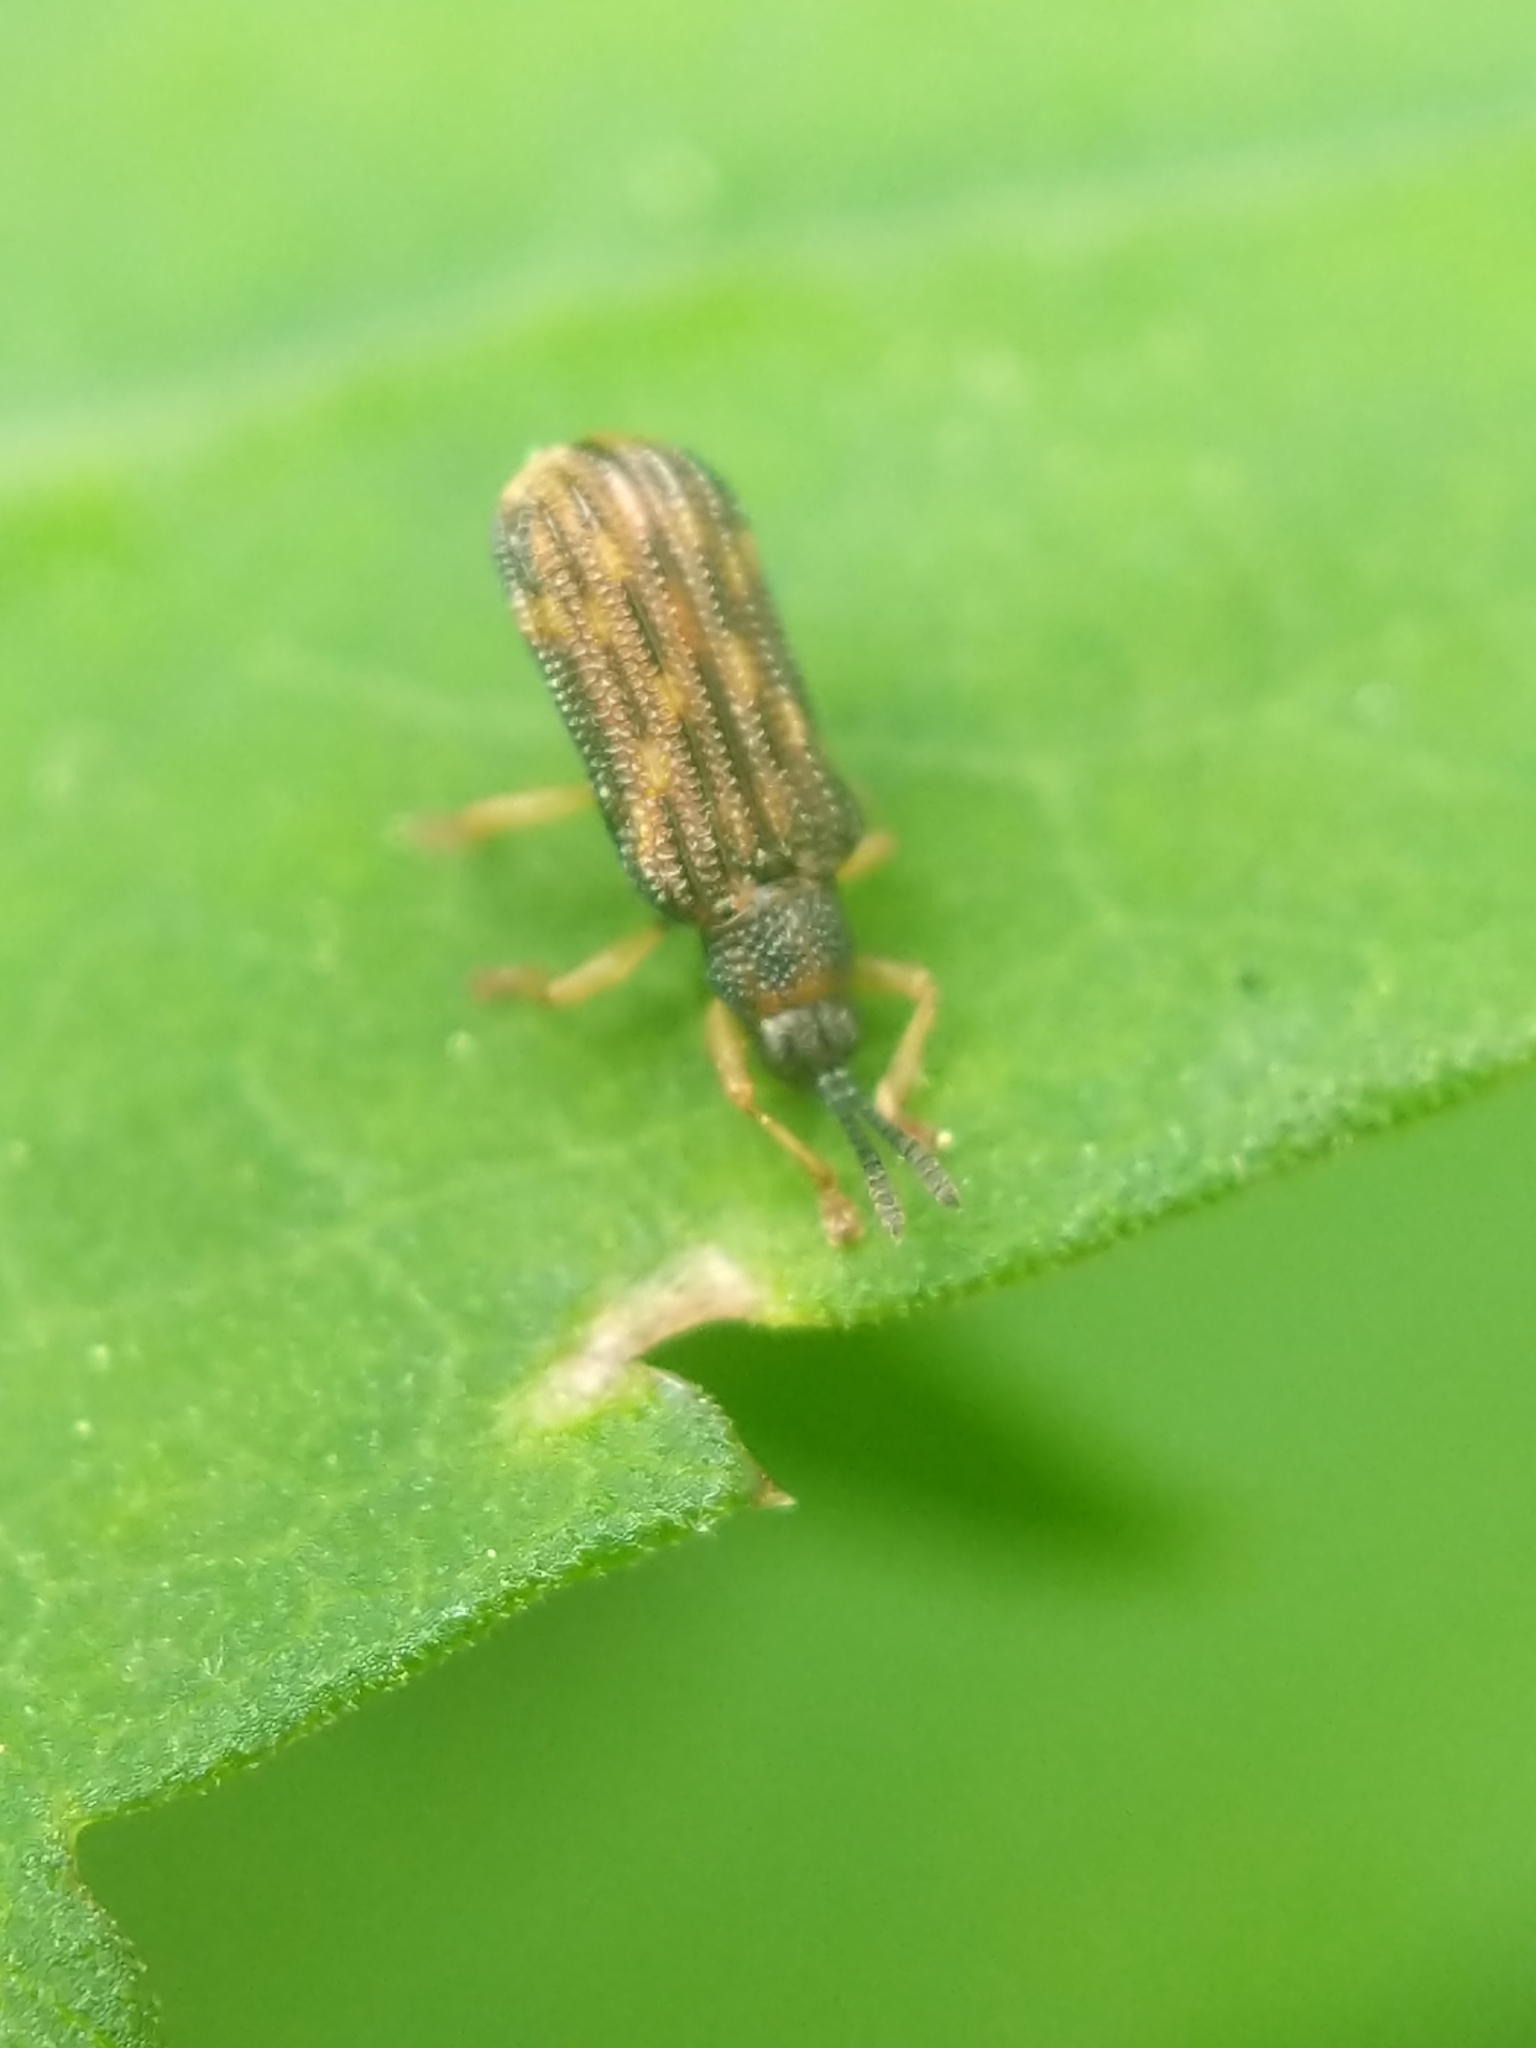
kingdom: Animalia
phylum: Arthropoda
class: Insecta
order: Coleoptera
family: Chrysomelidae
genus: Sumitrosis
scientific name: Sumitrosis inaequalis
